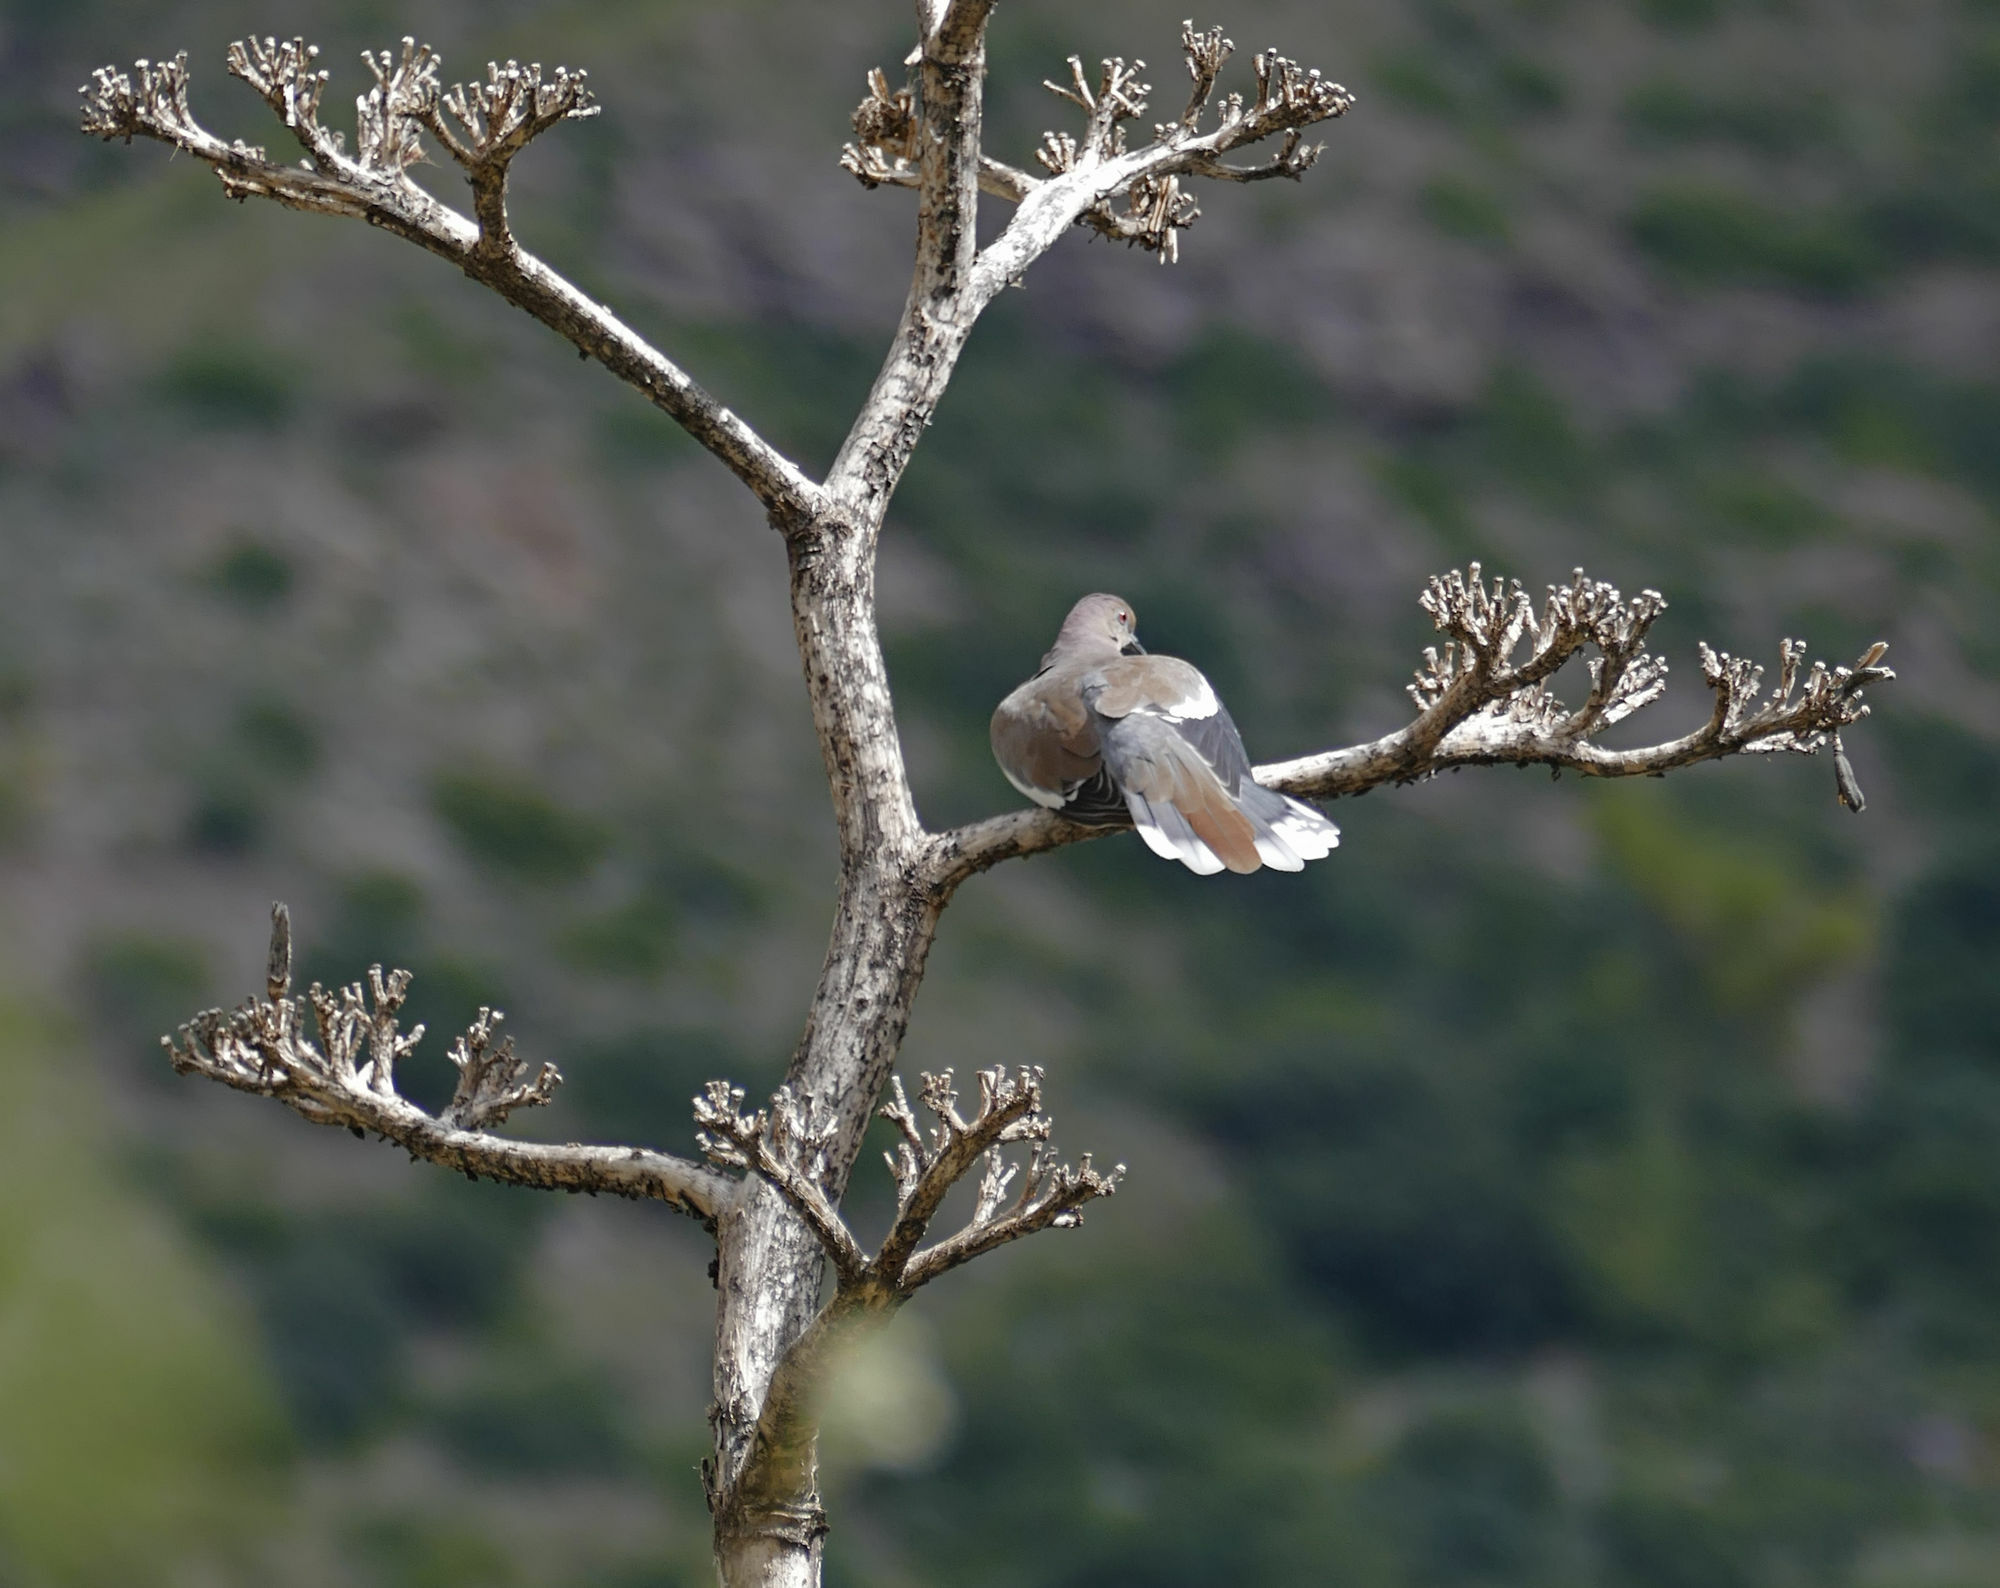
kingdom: Animalia
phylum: Chordata
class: Aves
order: Columbiformes
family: Columbidae
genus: Zenaida
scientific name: Zenaida asiatica
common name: White-winged dove
